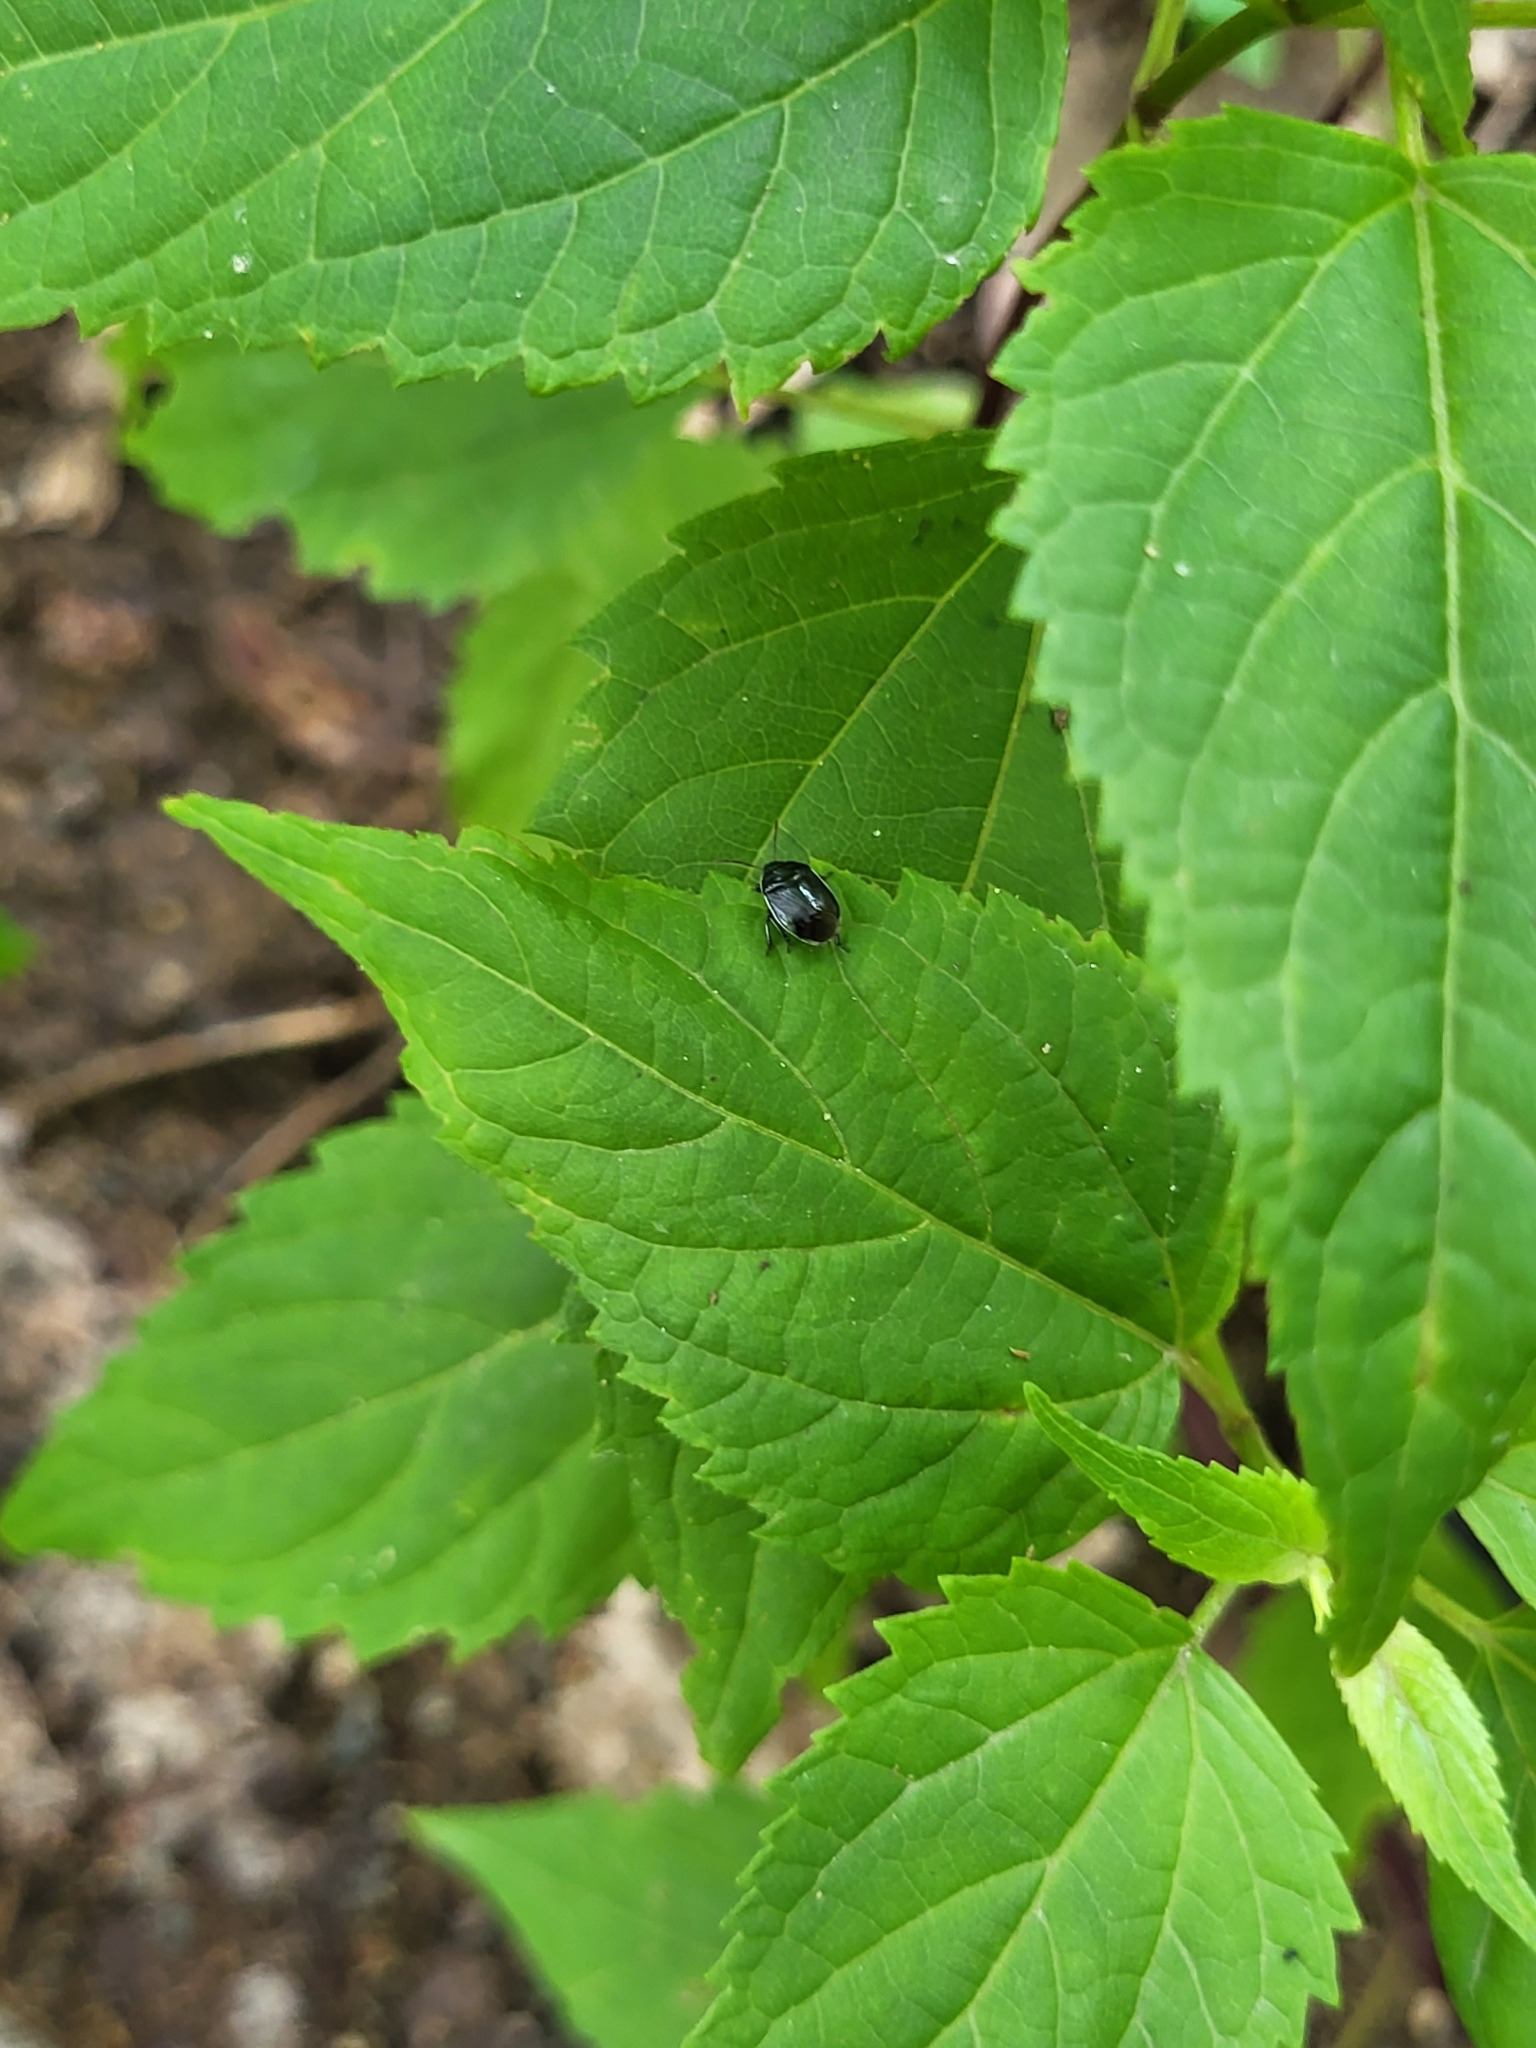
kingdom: Animalia
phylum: Arthropoda
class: Insecta
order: Hemiptera
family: Cydnidae
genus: Sehirus
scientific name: Sehirus cinctus
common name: White-margined burrower bug
